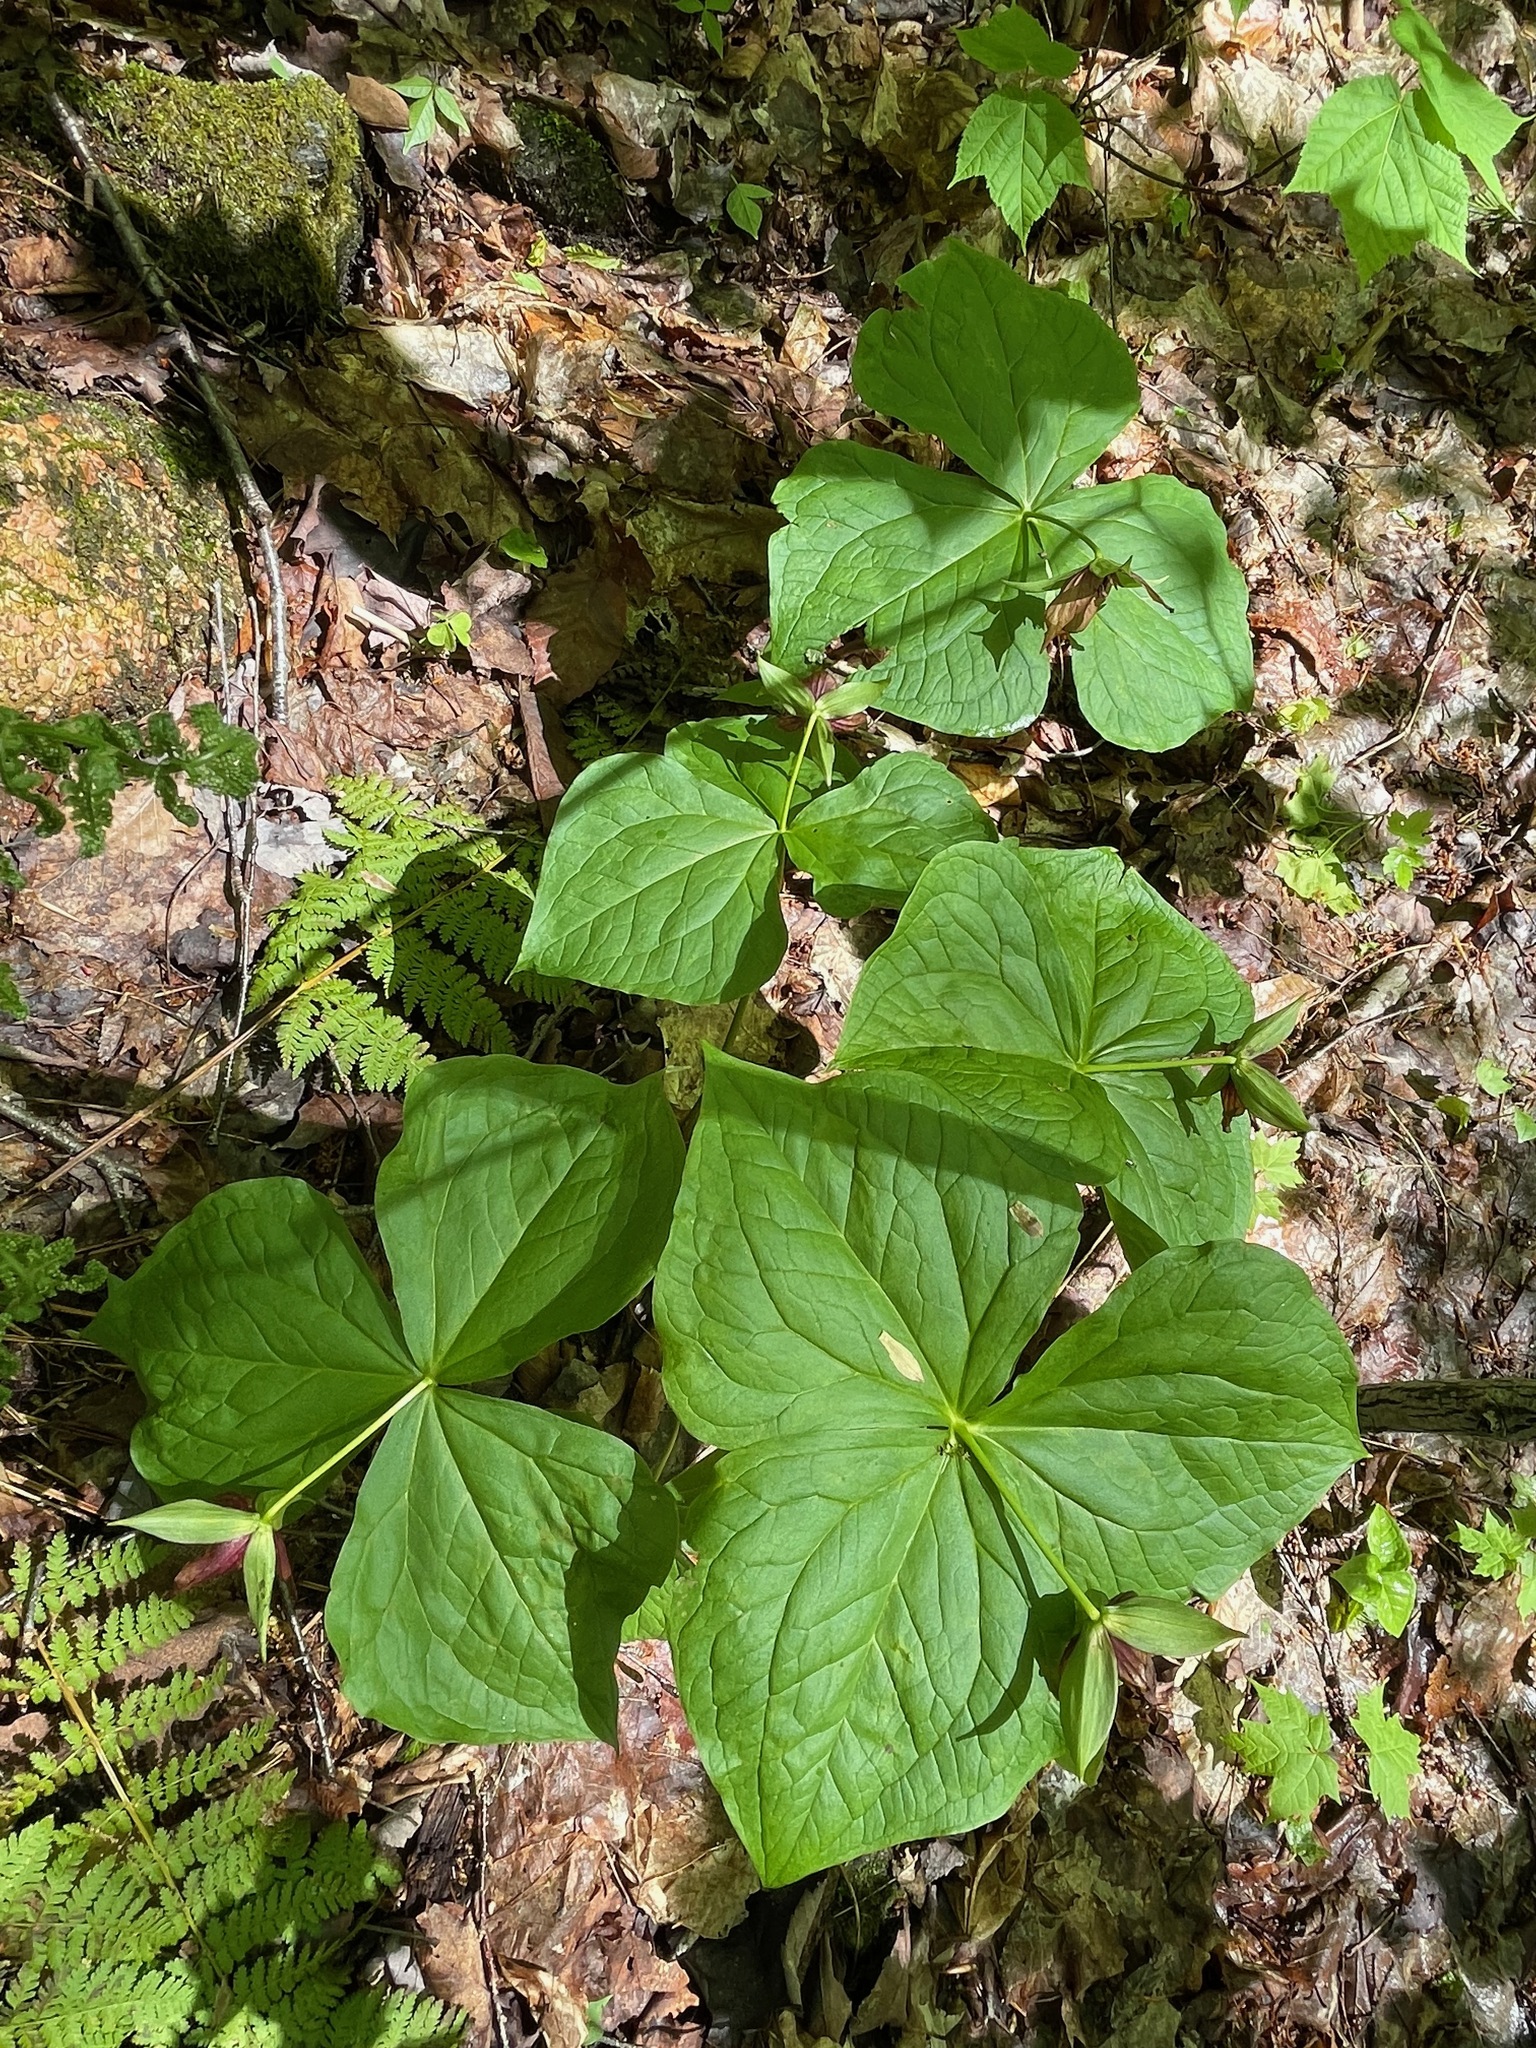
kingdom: Plantae
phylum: Tracheophyta
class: Liliopsida
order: Liliales
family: Melanthiaceae
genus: Trillium
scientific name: Trillium erectum
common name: Purple trillium
